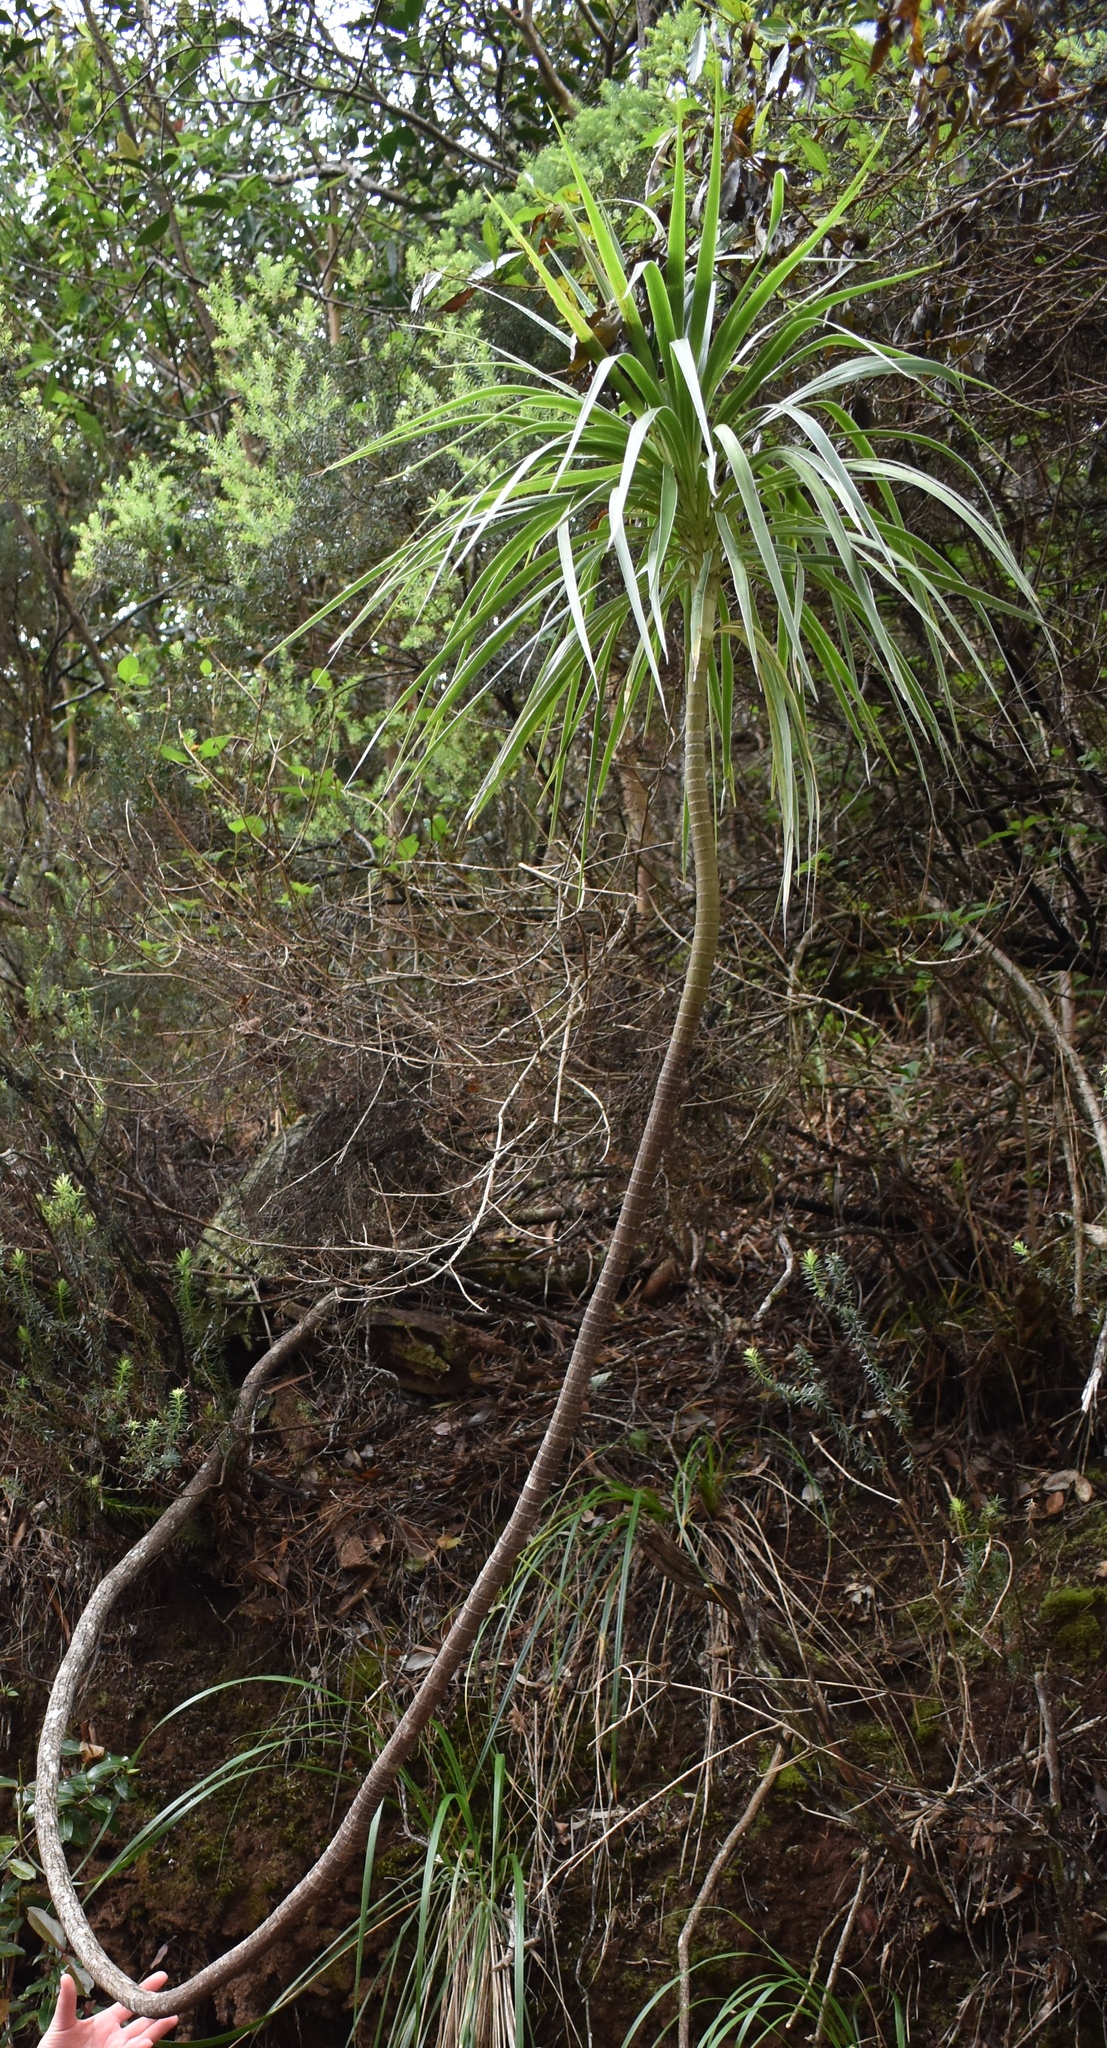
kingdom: Plantae
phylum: Tracheophyta
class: Magnoliopsida
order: Asterales
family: Asteraceae
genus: Wilkesia
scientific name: Wilkesia gymnoxiphium
